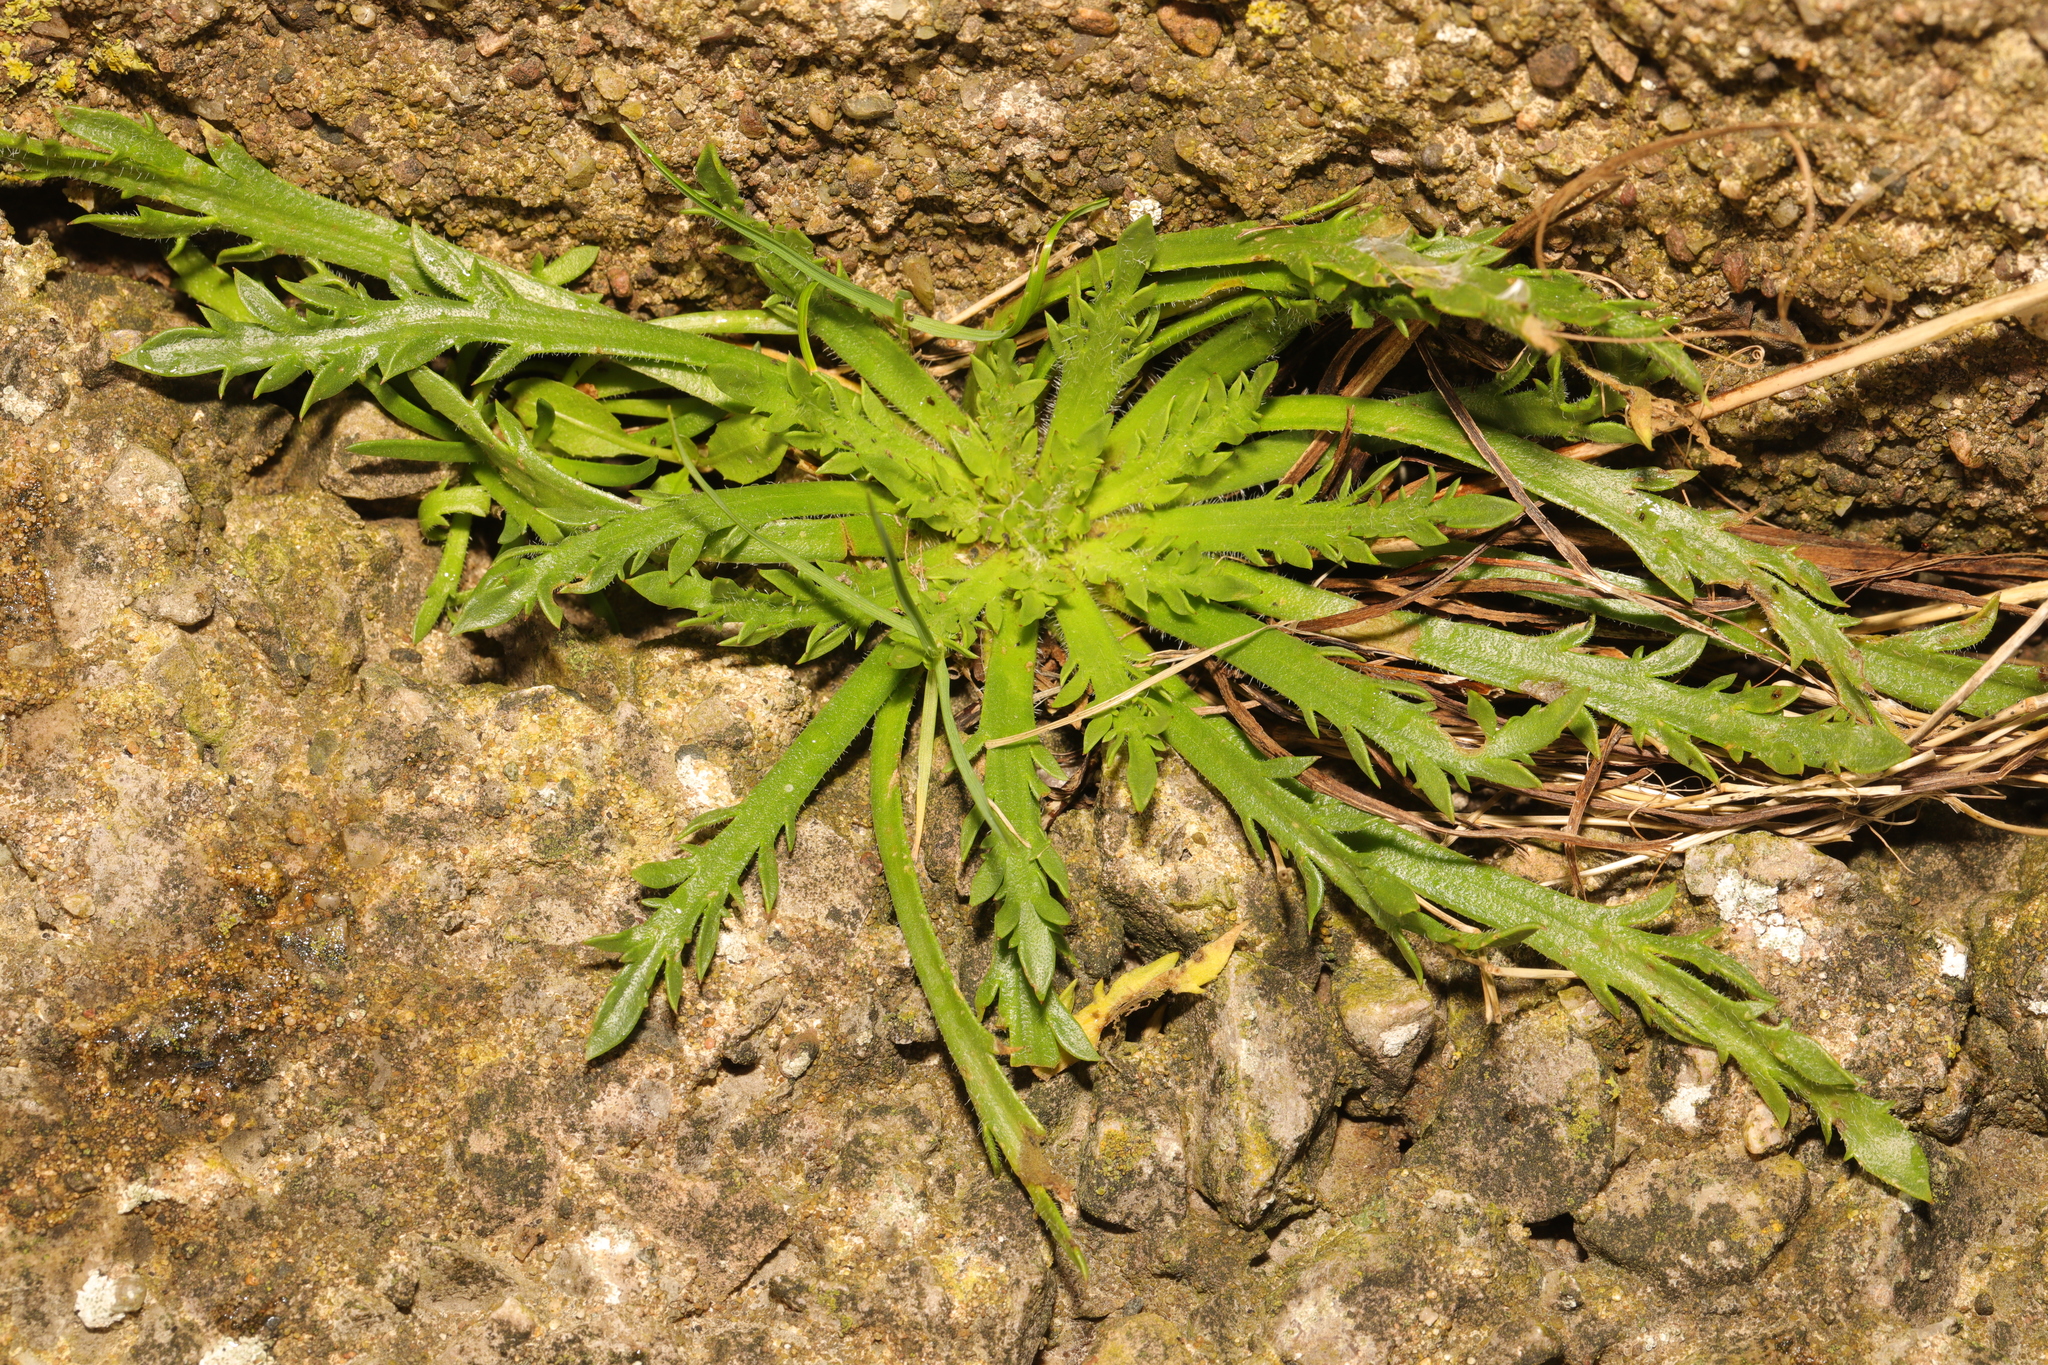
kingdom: Plantae
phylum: Tracheophyta
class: Magnoliopsida
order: Lamiales
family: Plantaginaceae
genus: Plantago
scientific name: Plantago coronopus
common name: Buck's-horn plantain
